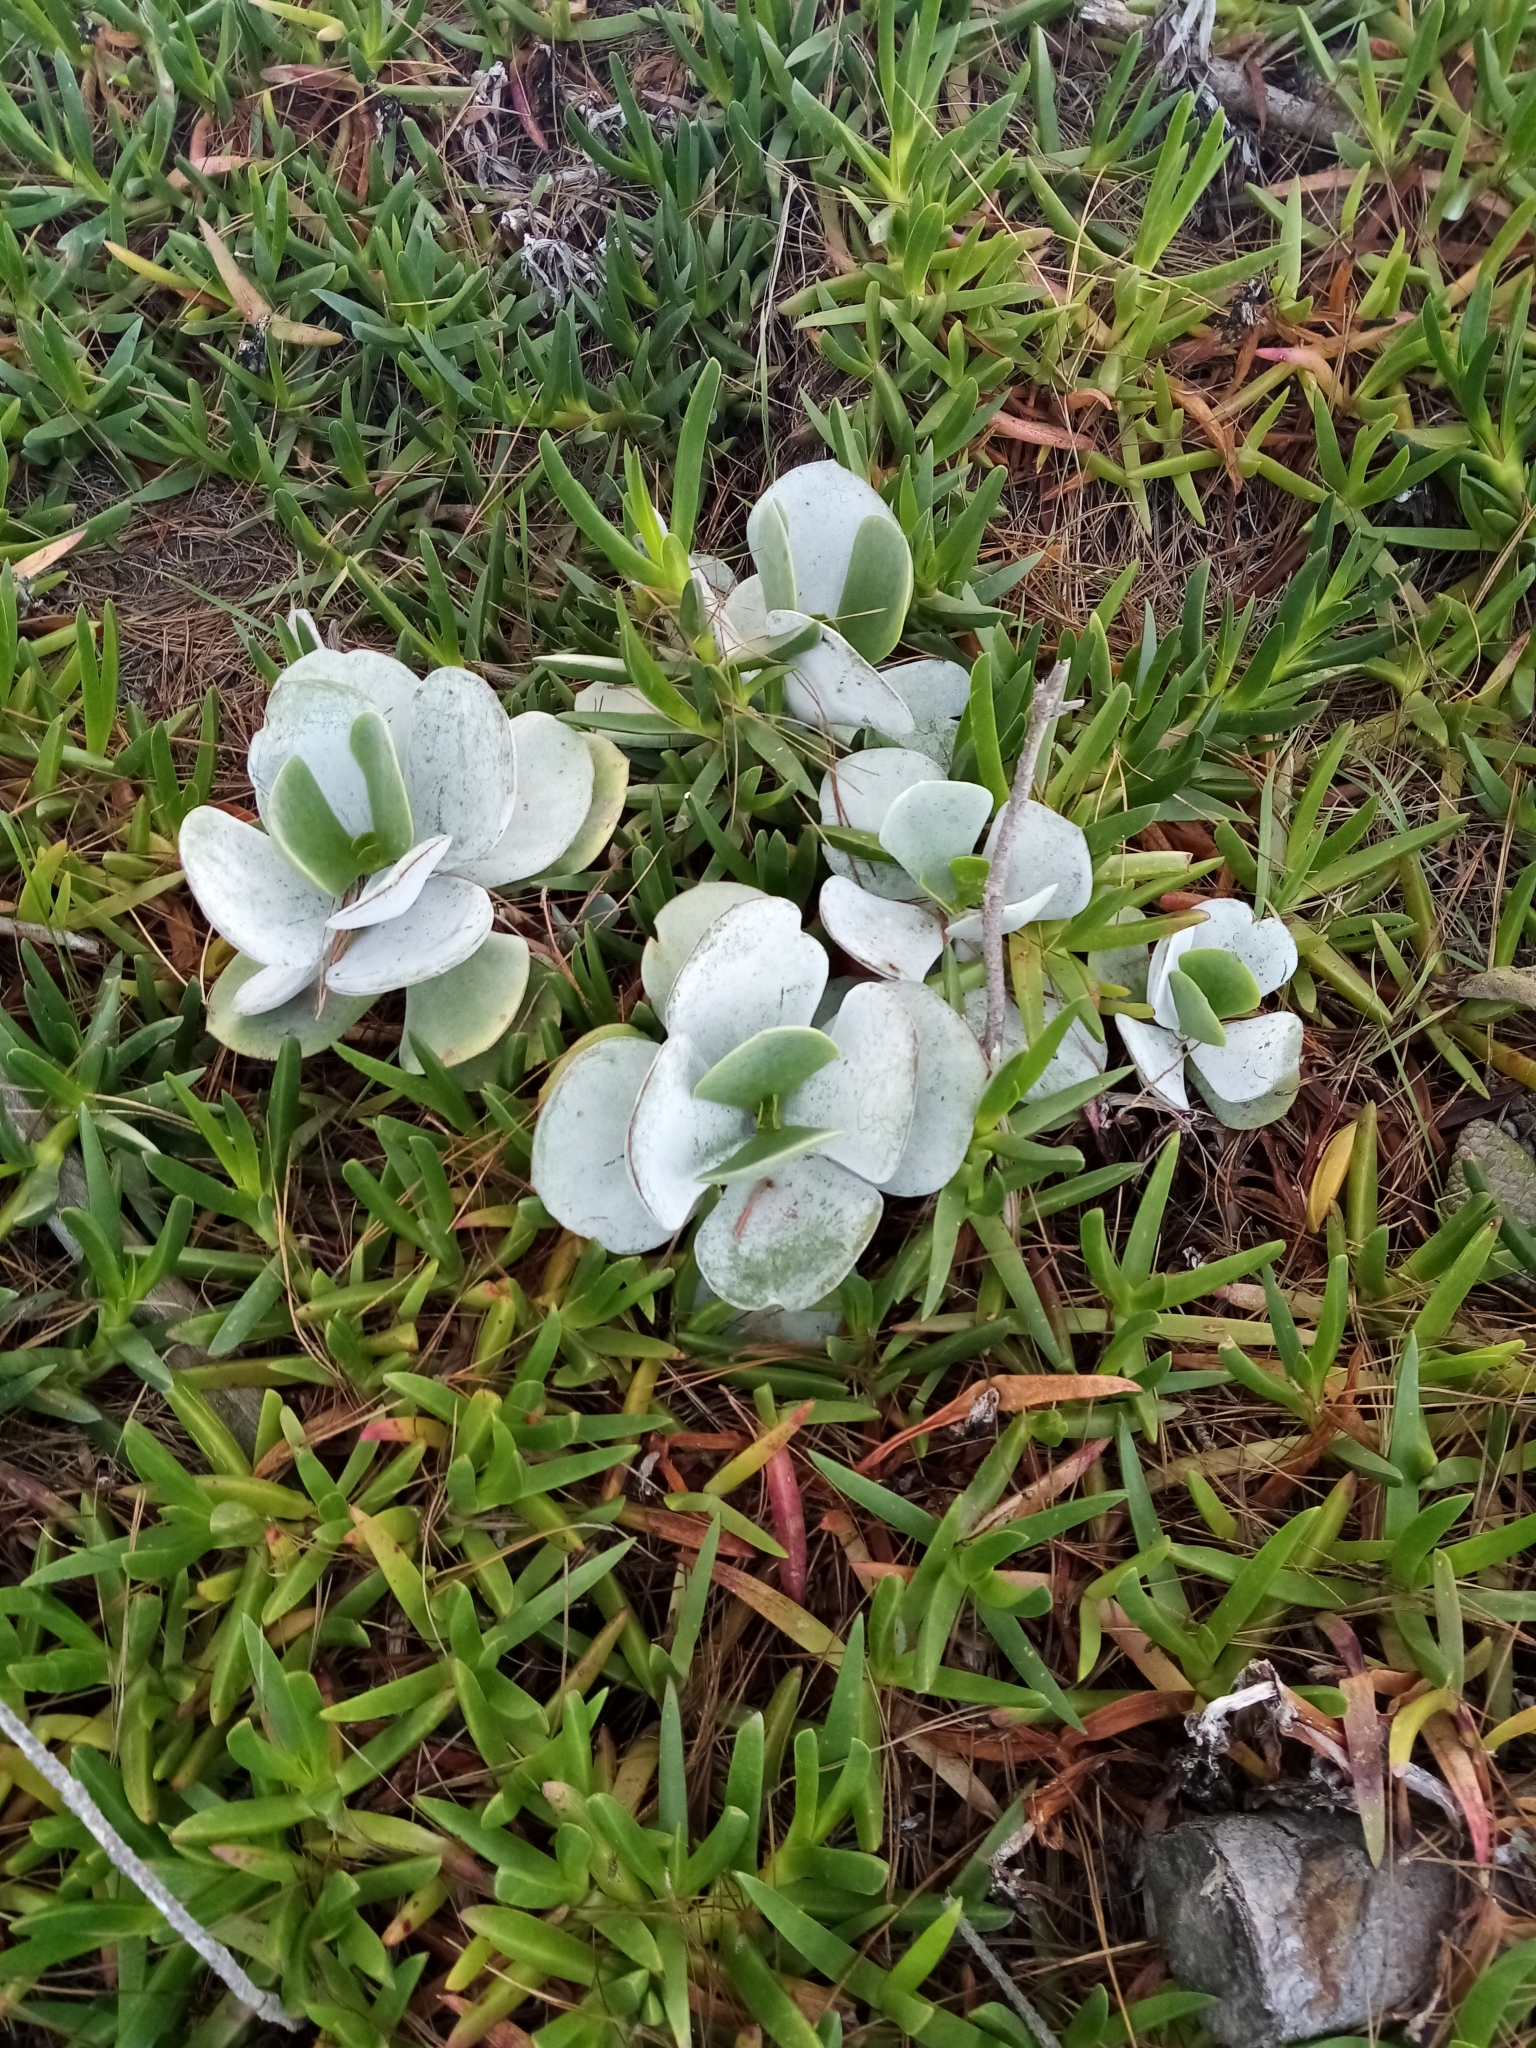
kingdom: Plantae
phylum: Tracheophyta
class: Magnoliopsida
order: Saxifragales
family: Crassulaceae
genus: Cotyledon
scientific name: Cotyledon orbiculata
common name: Pig's ear
